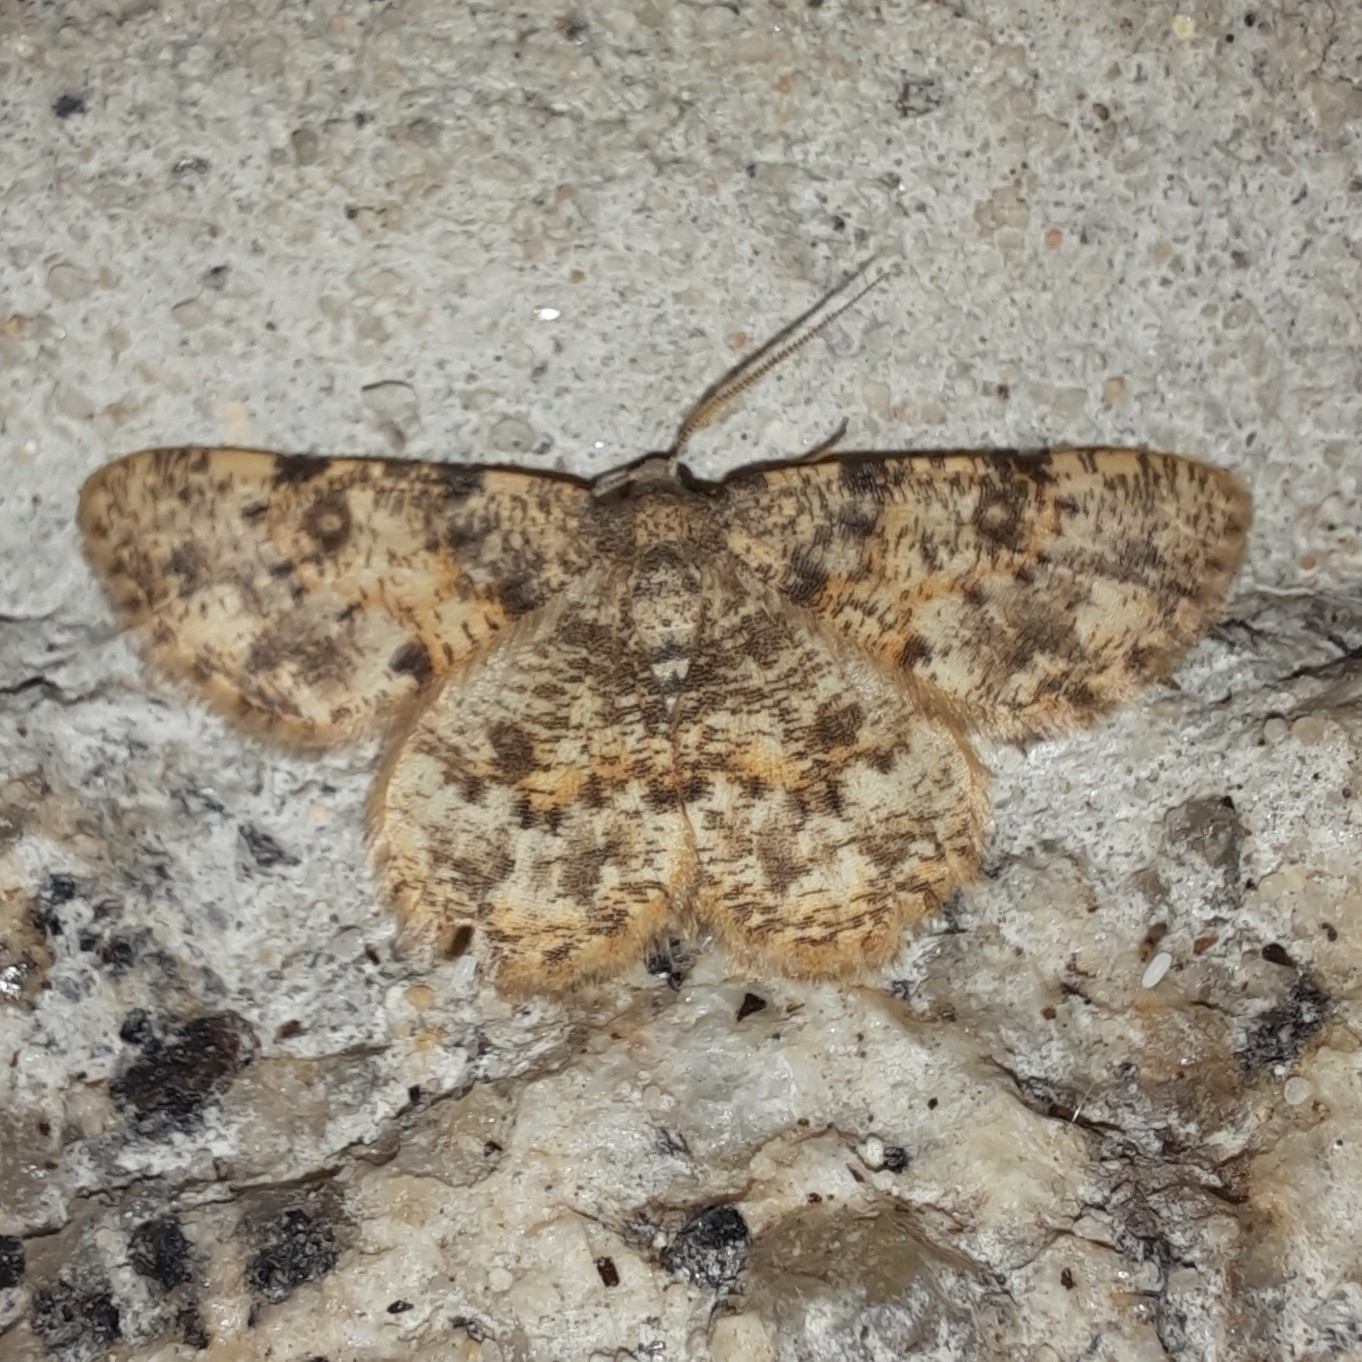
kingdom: Animalia
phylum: Arthropoda
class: Insecta
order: Lepidoptera
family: Geometridae
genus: Charissa
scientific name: Charissa mucidaria
